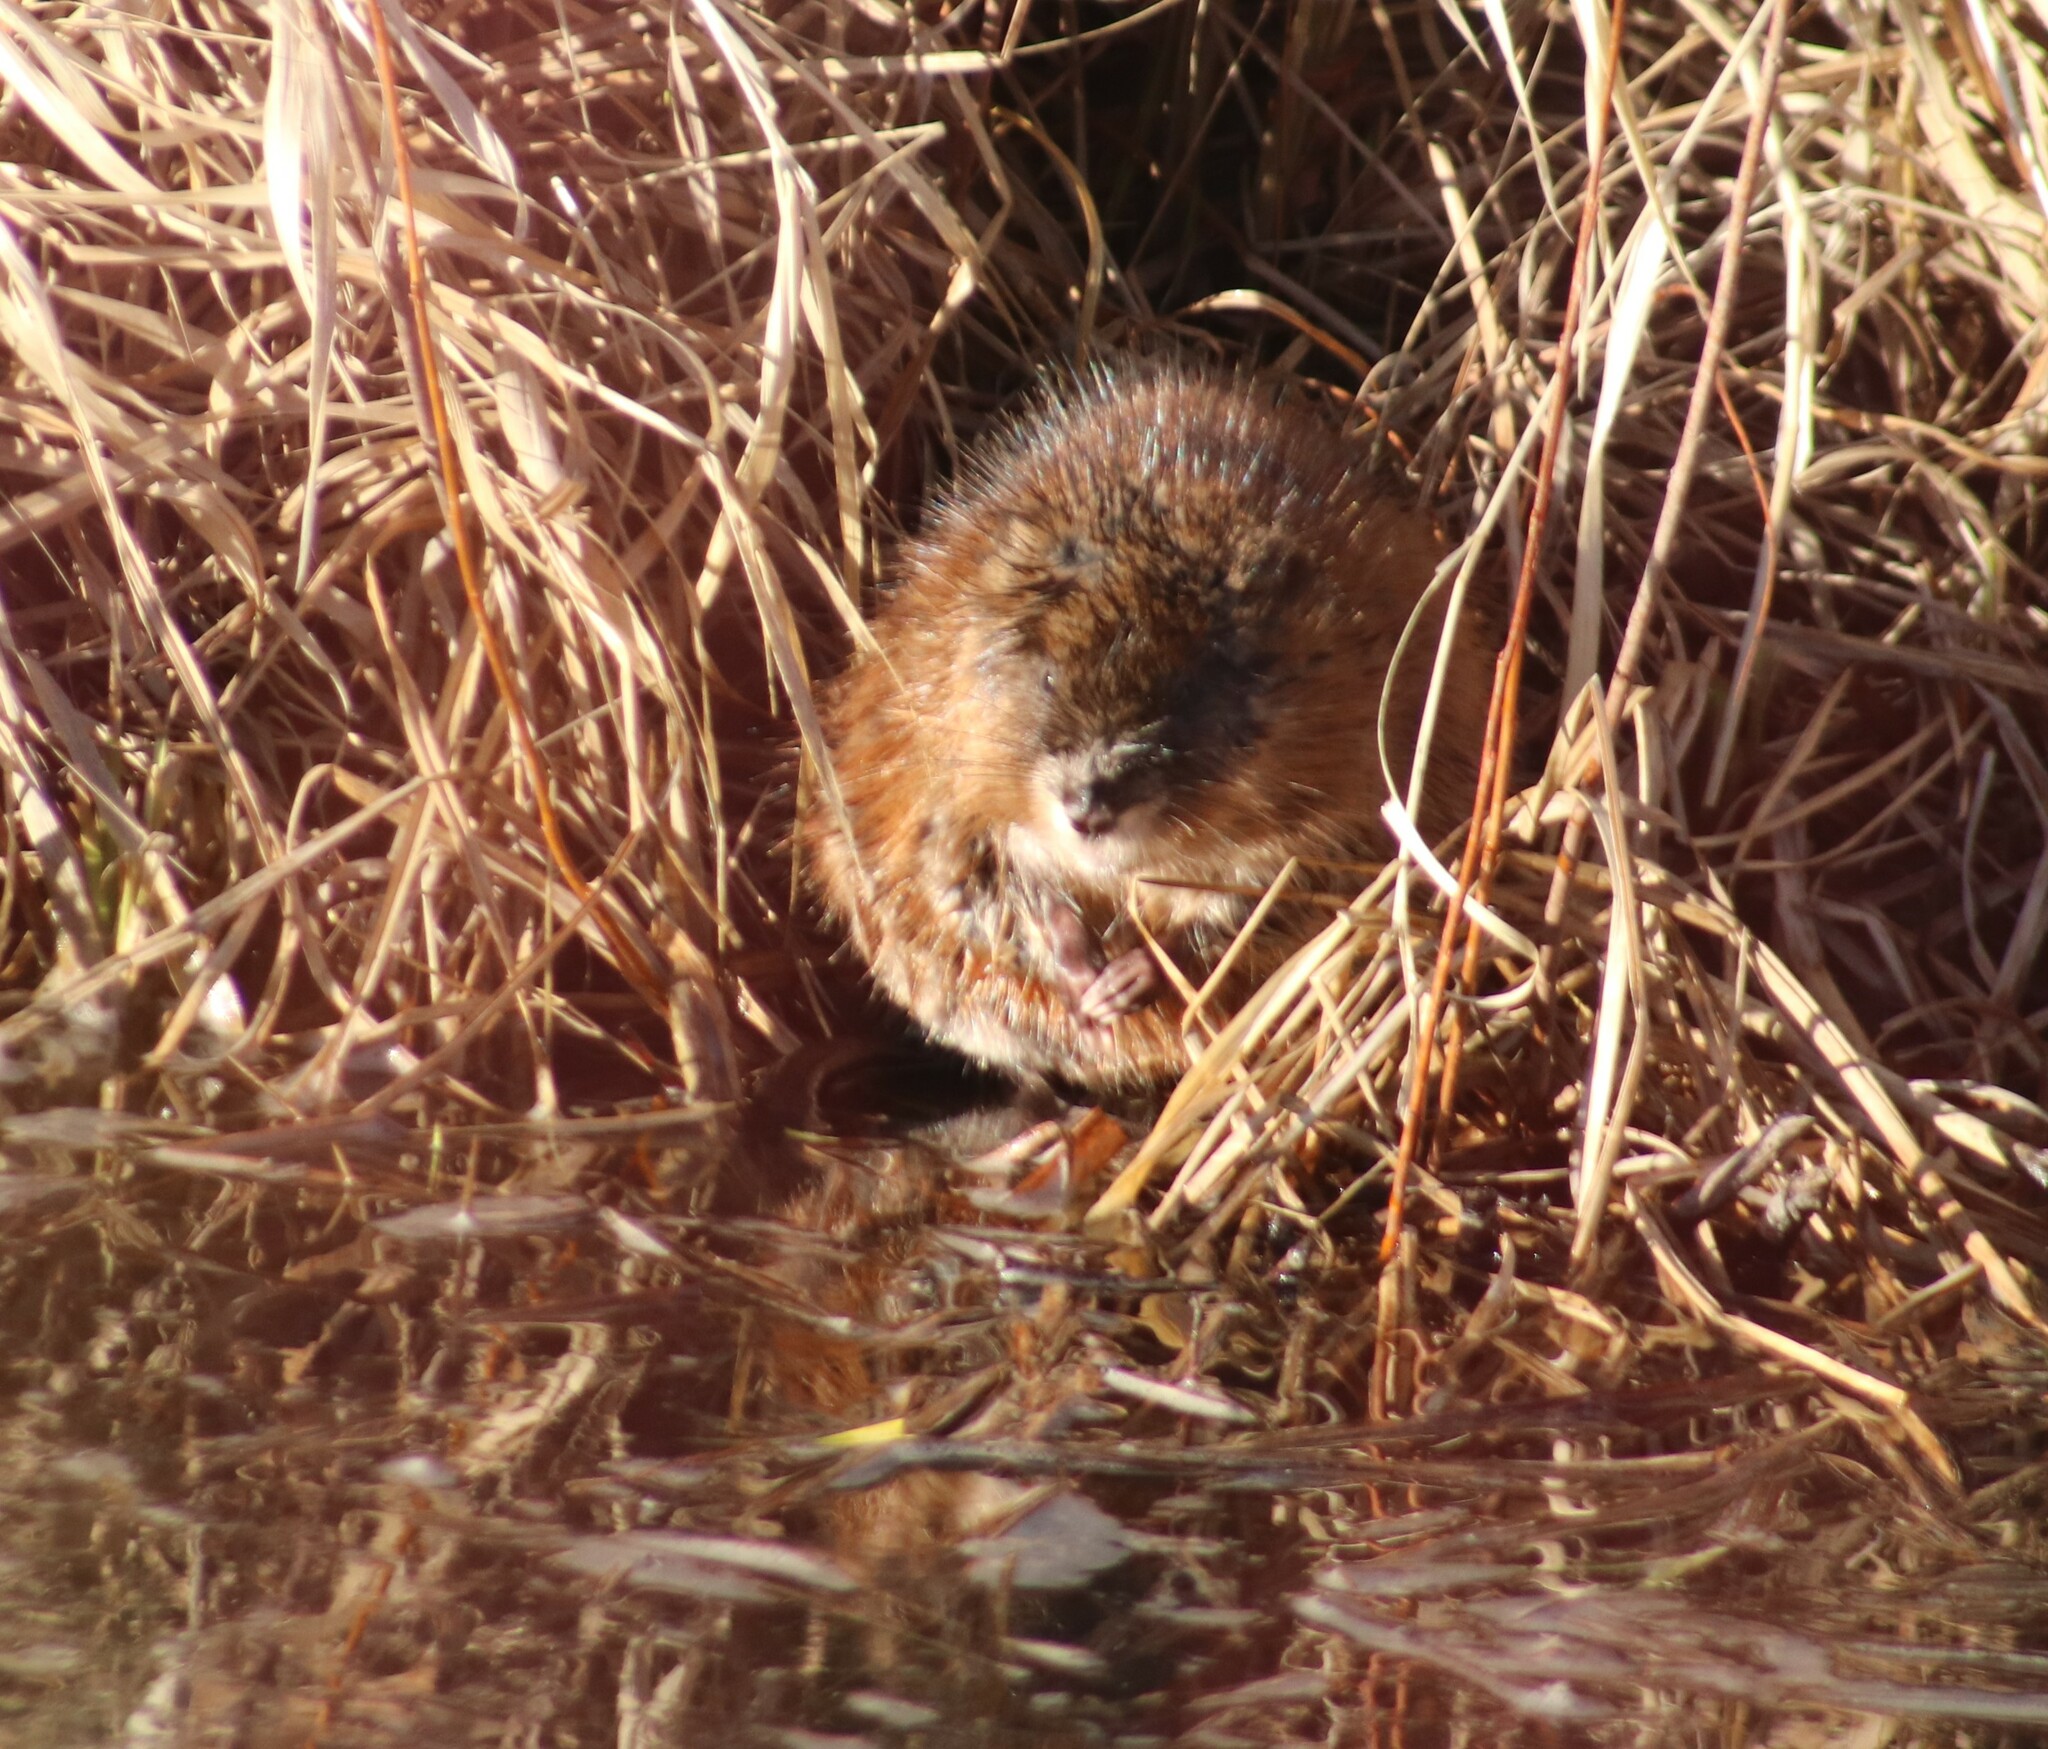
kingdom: Animalia
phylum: Chordata
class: Mammalia
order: Rodentia
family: Cricetidae
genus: Ondatra
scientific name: Ondatra zibethicus
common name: Muskrat
